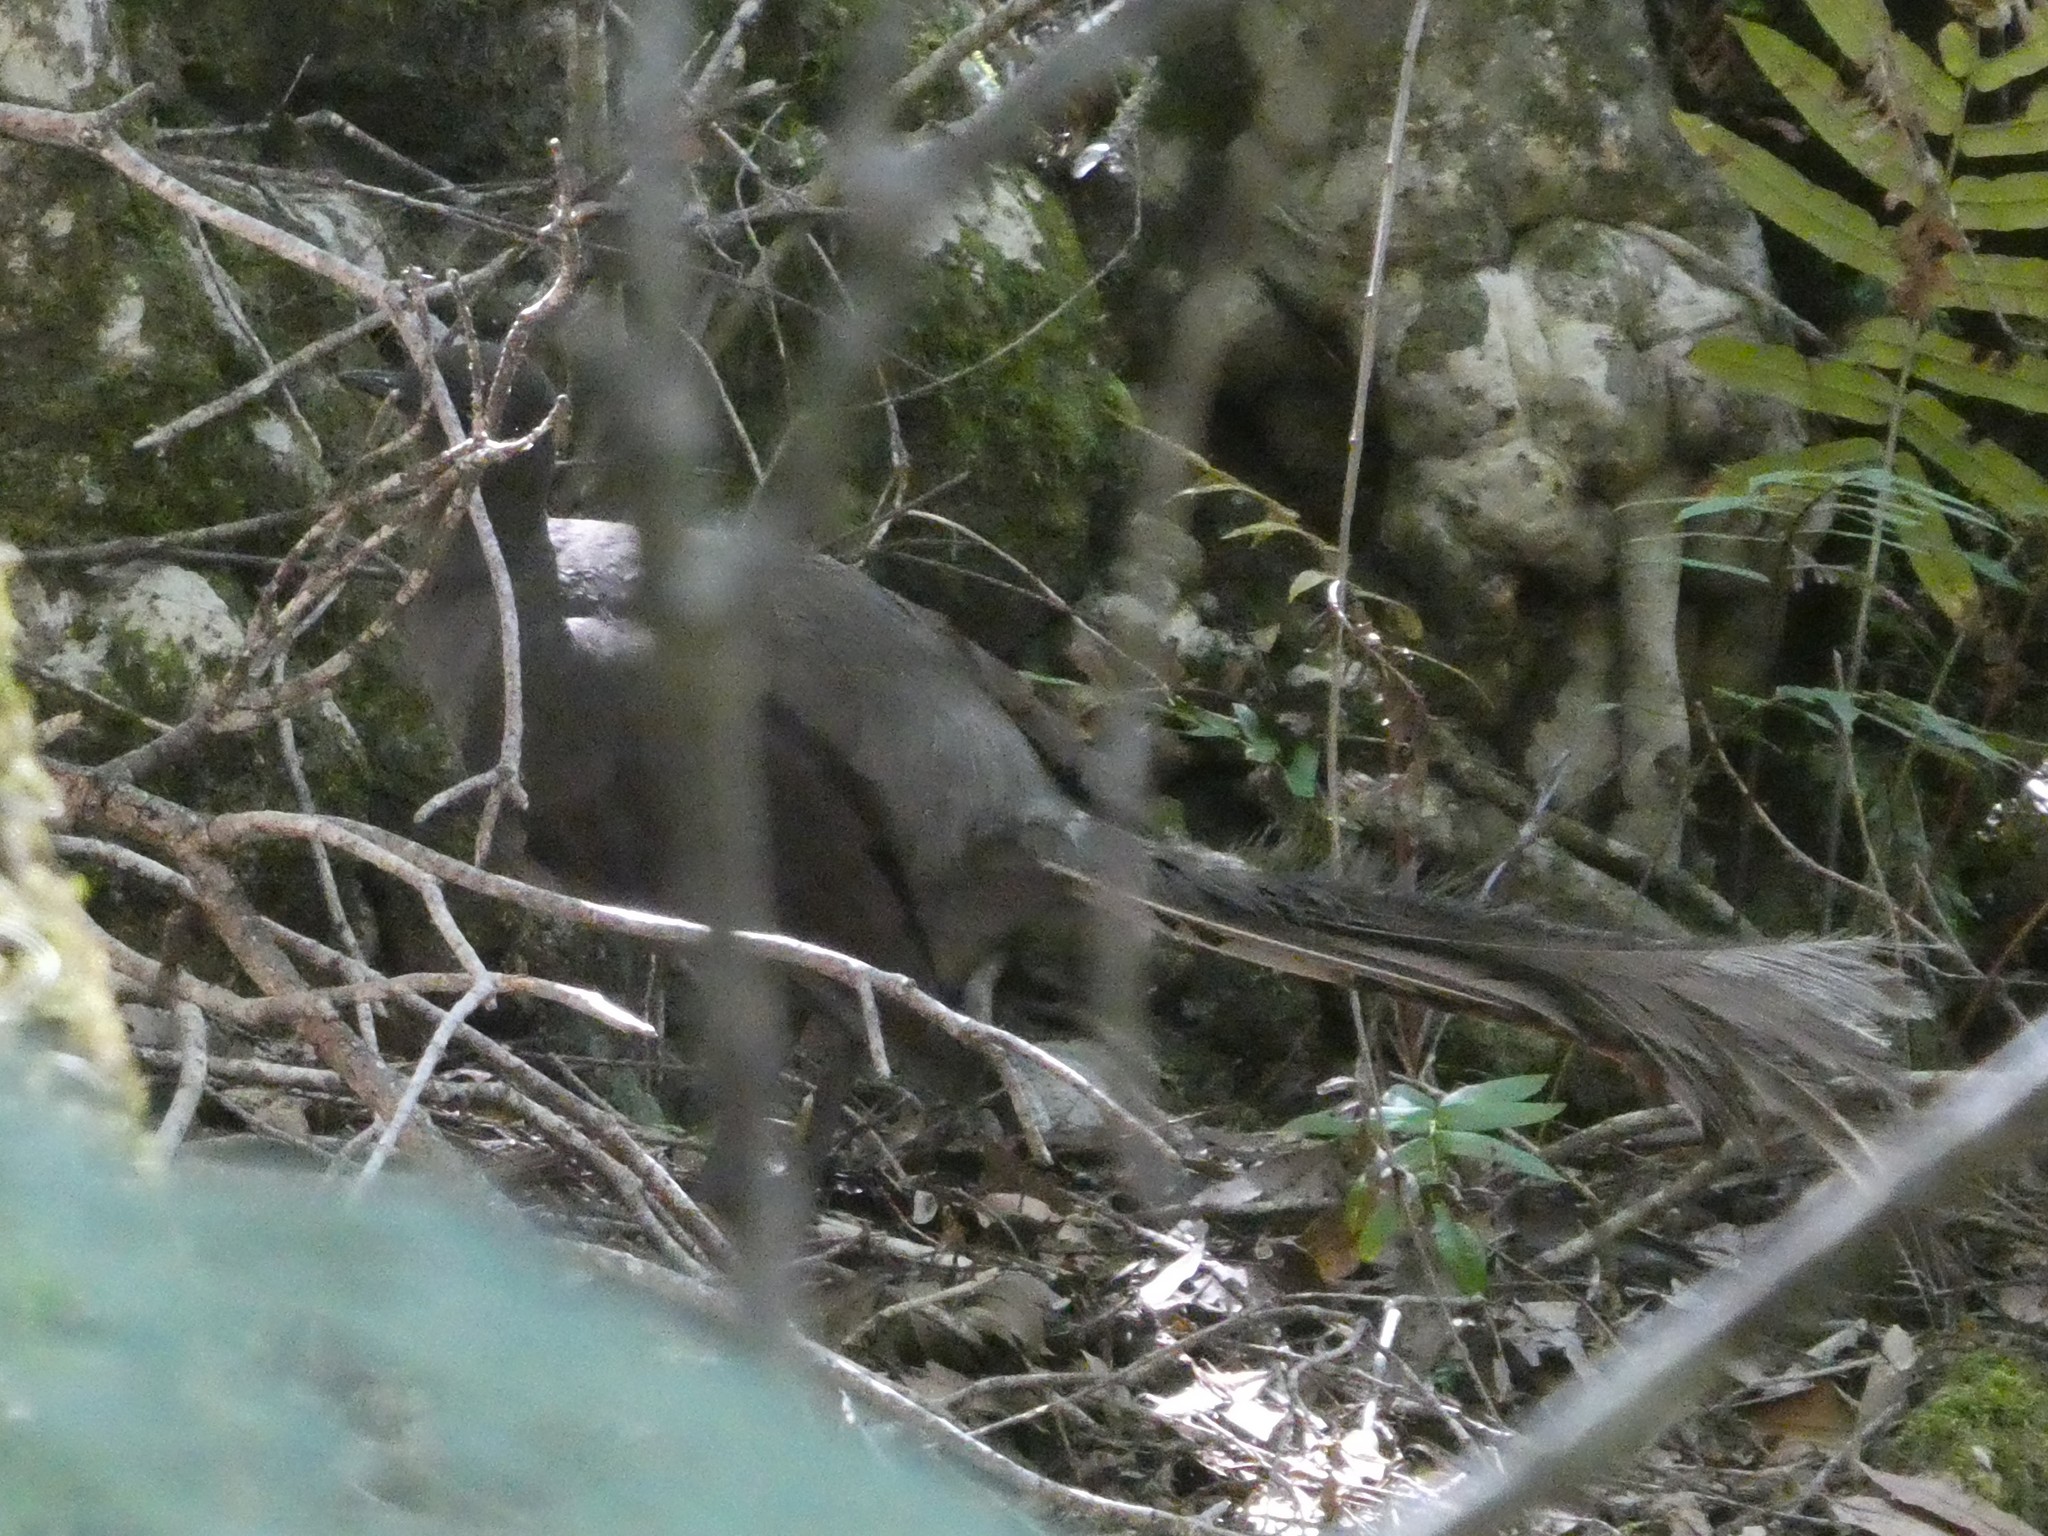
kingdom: Animalia
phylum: Chordata
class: Aves
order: Passeriformes
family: Menuridae
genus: Menura
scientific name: Menura novaehollandiae
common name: Superb lyrebird
